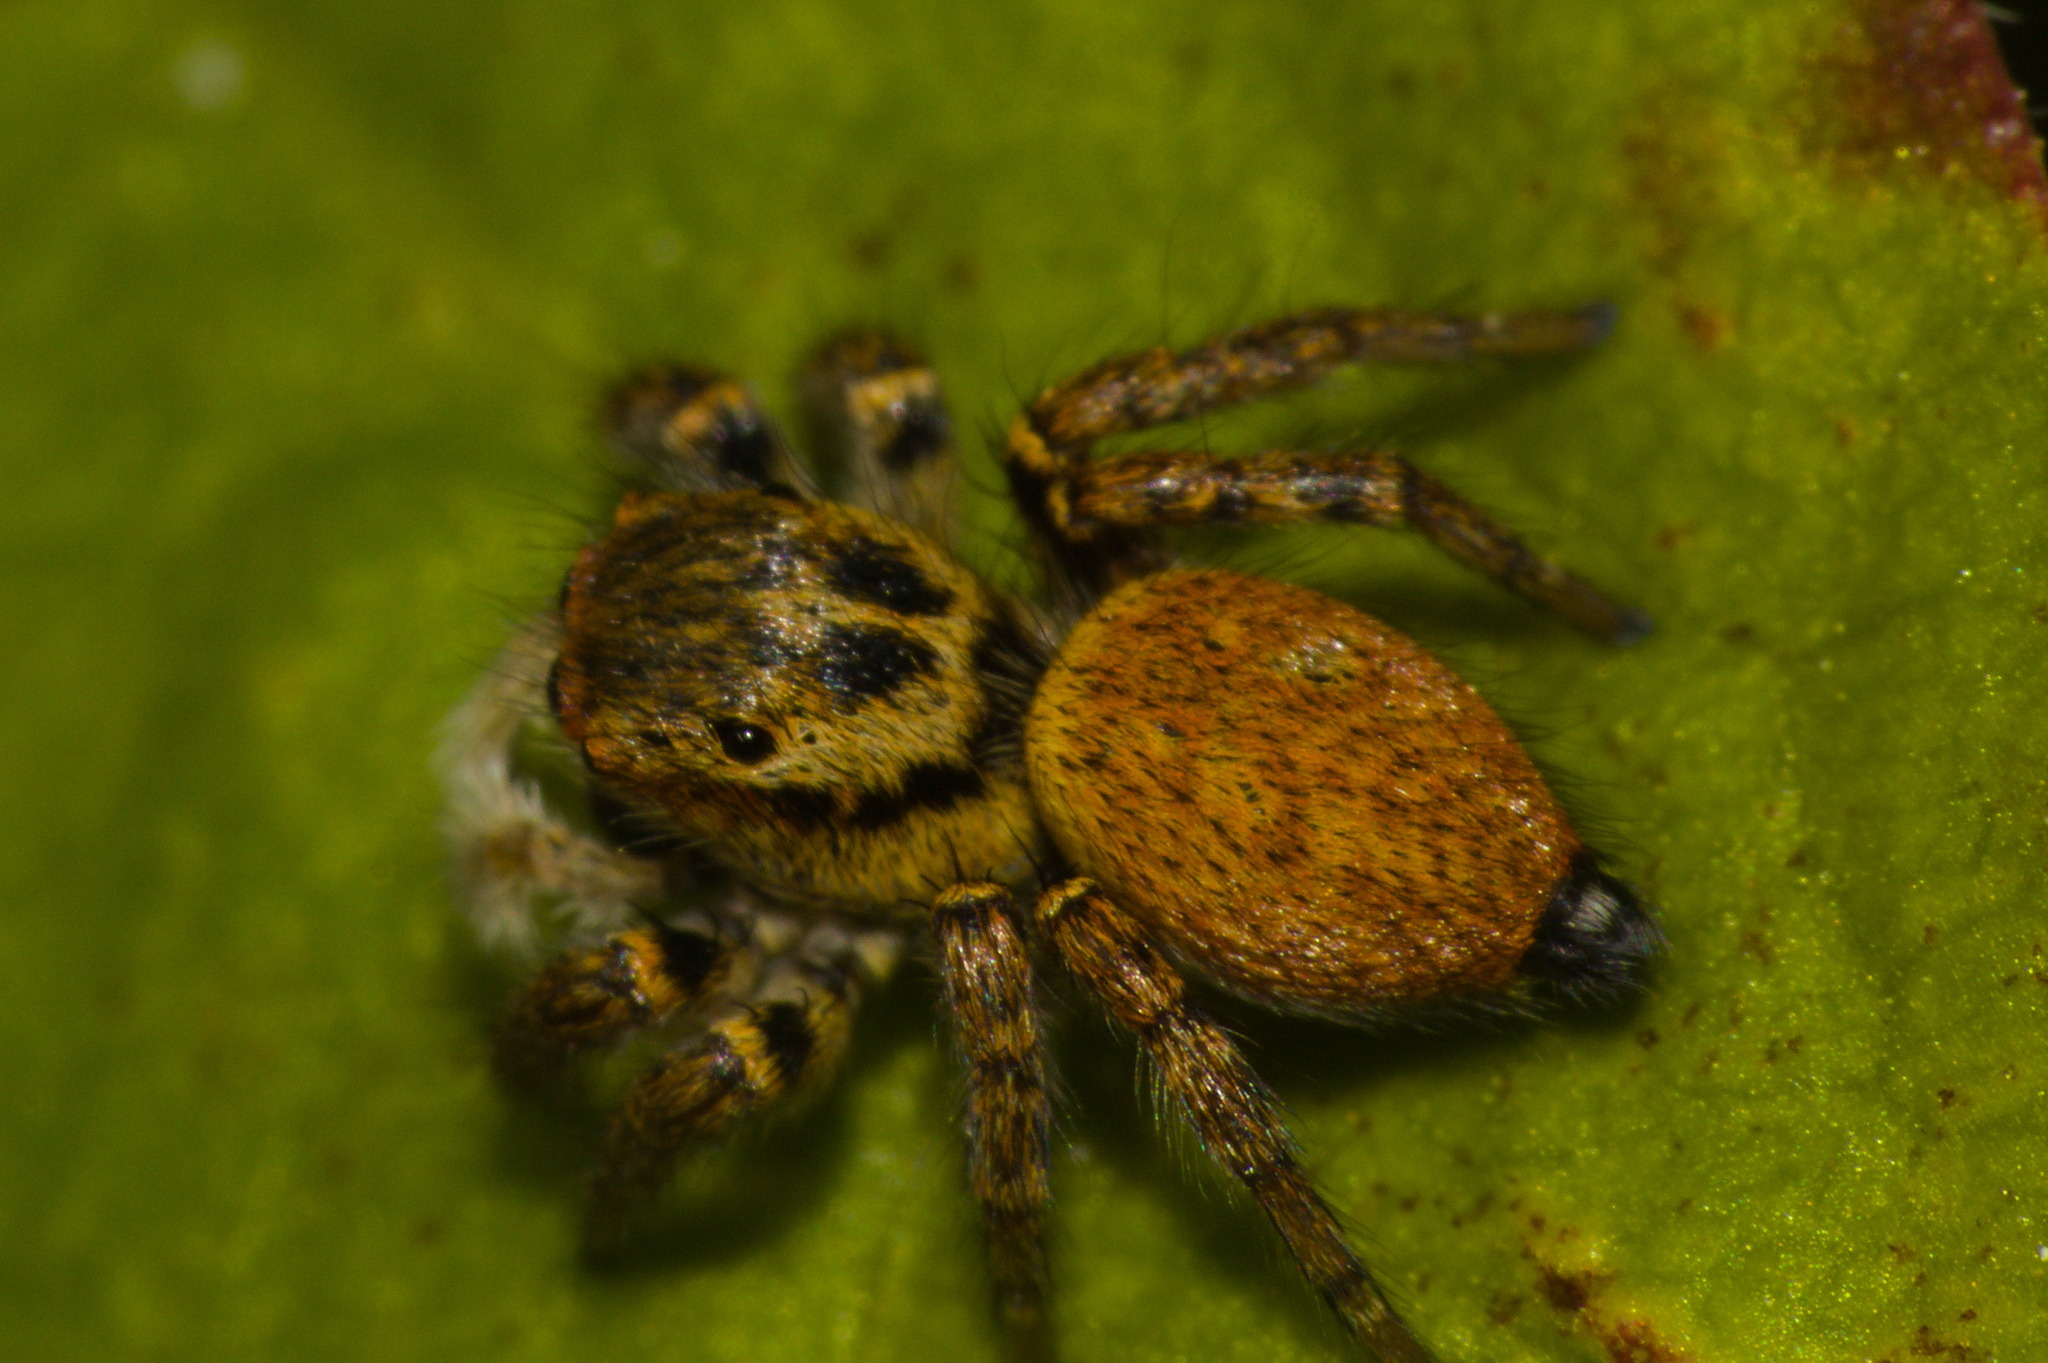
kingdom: Animalia
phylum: Arthropoda
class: Arachnida
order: Araneae
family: Salticidae
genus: Carrhotus
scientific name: Carrhotus xanthogramma
